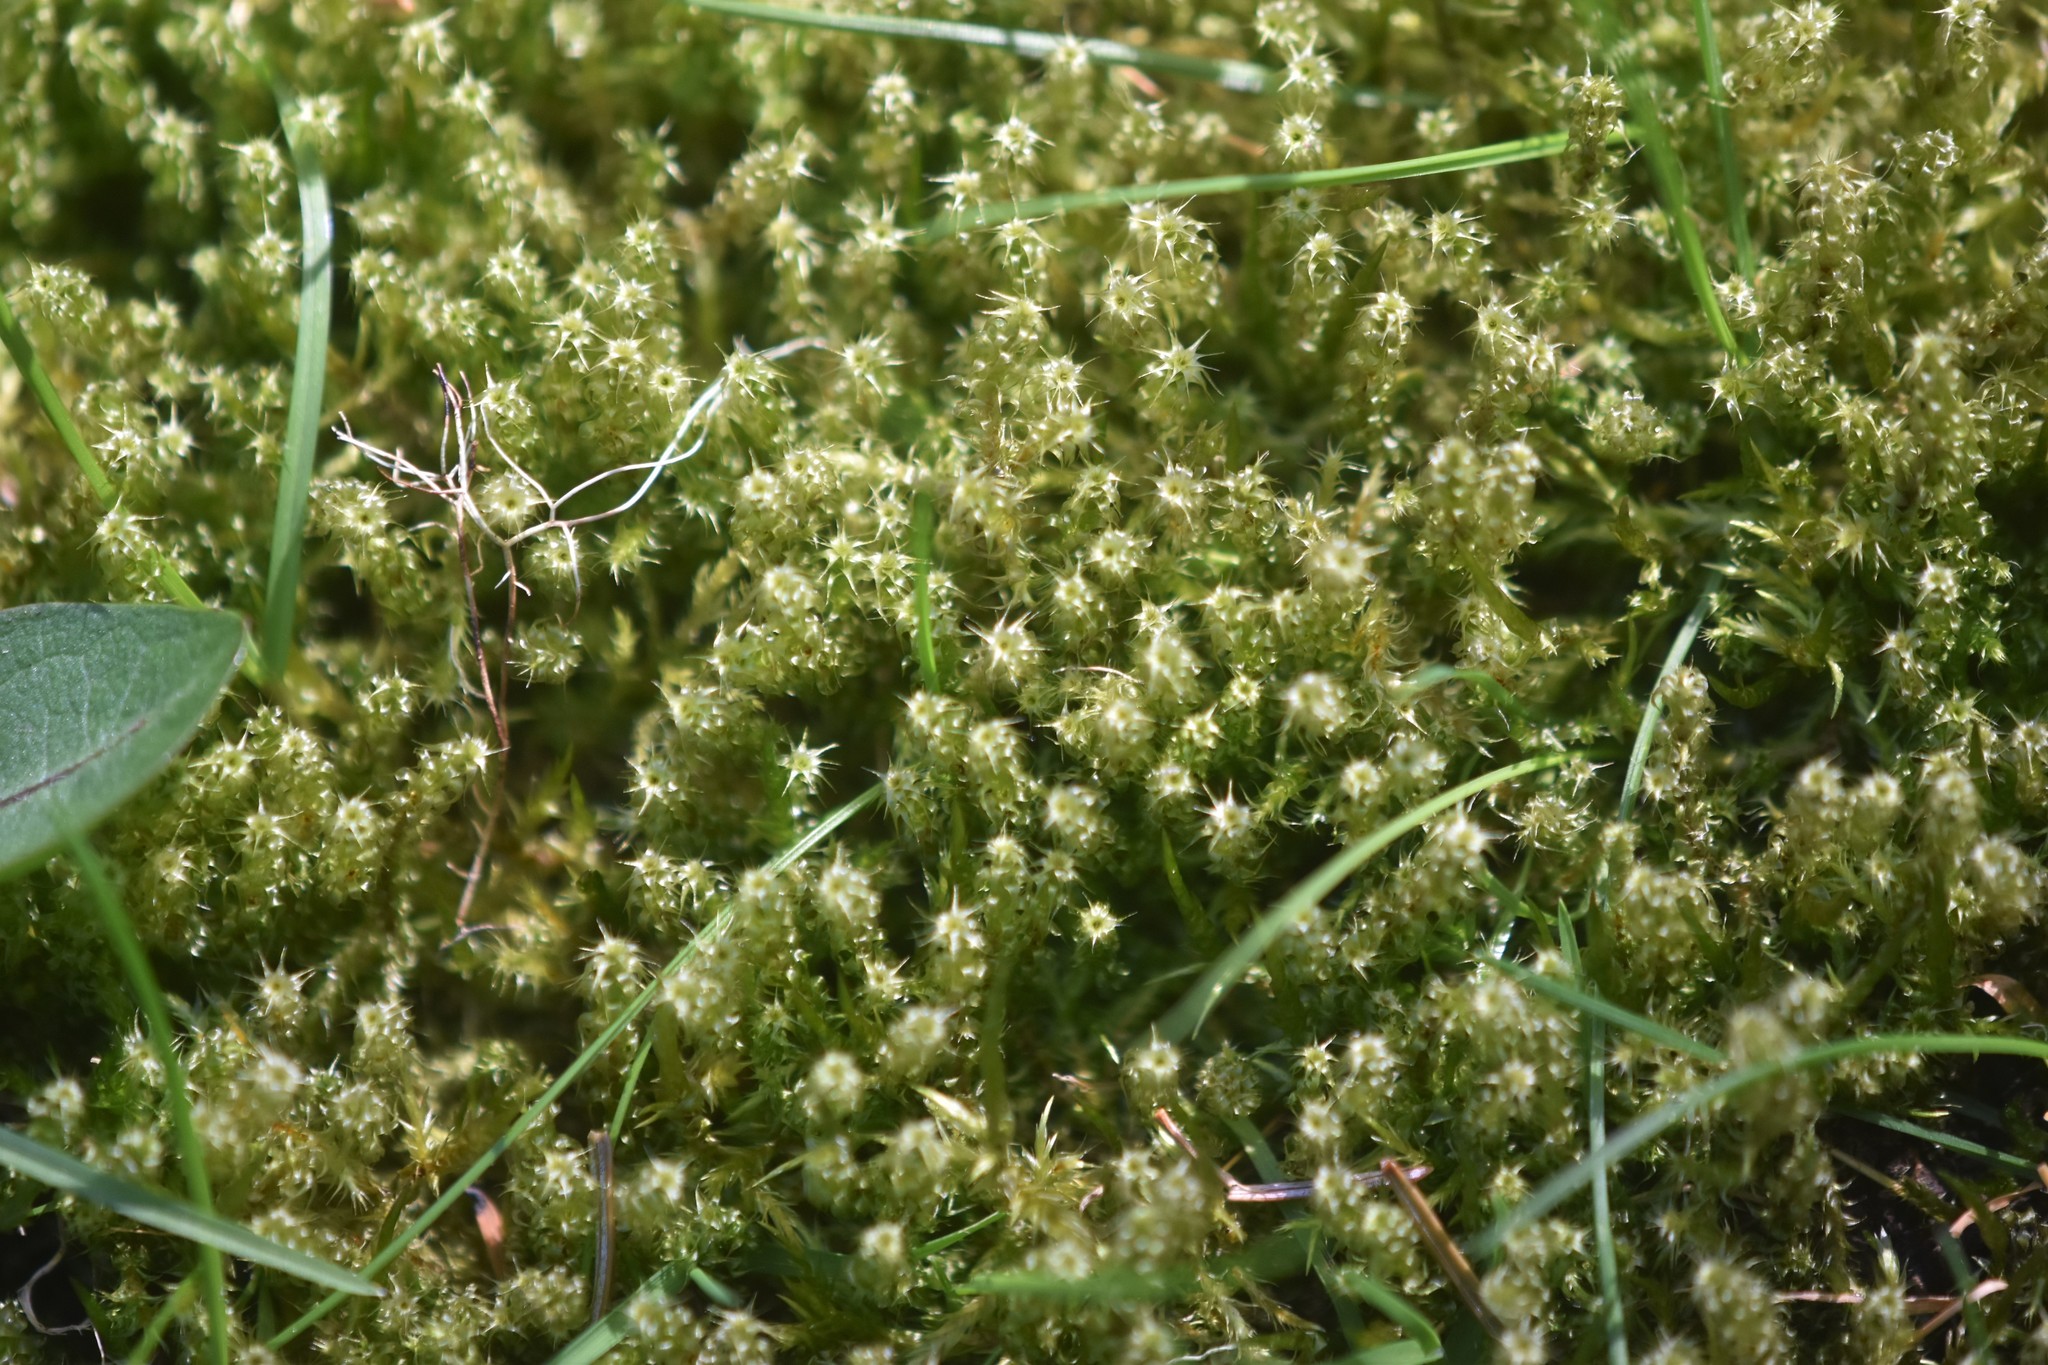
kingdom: Plantae
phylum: Bryophyta
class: Bryopsida
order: Hypnales
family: Hylocomiaceae
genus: Rhytidiadelphus
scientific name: Rhytidiadelphus squarrosus
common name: Springy turf-moss
